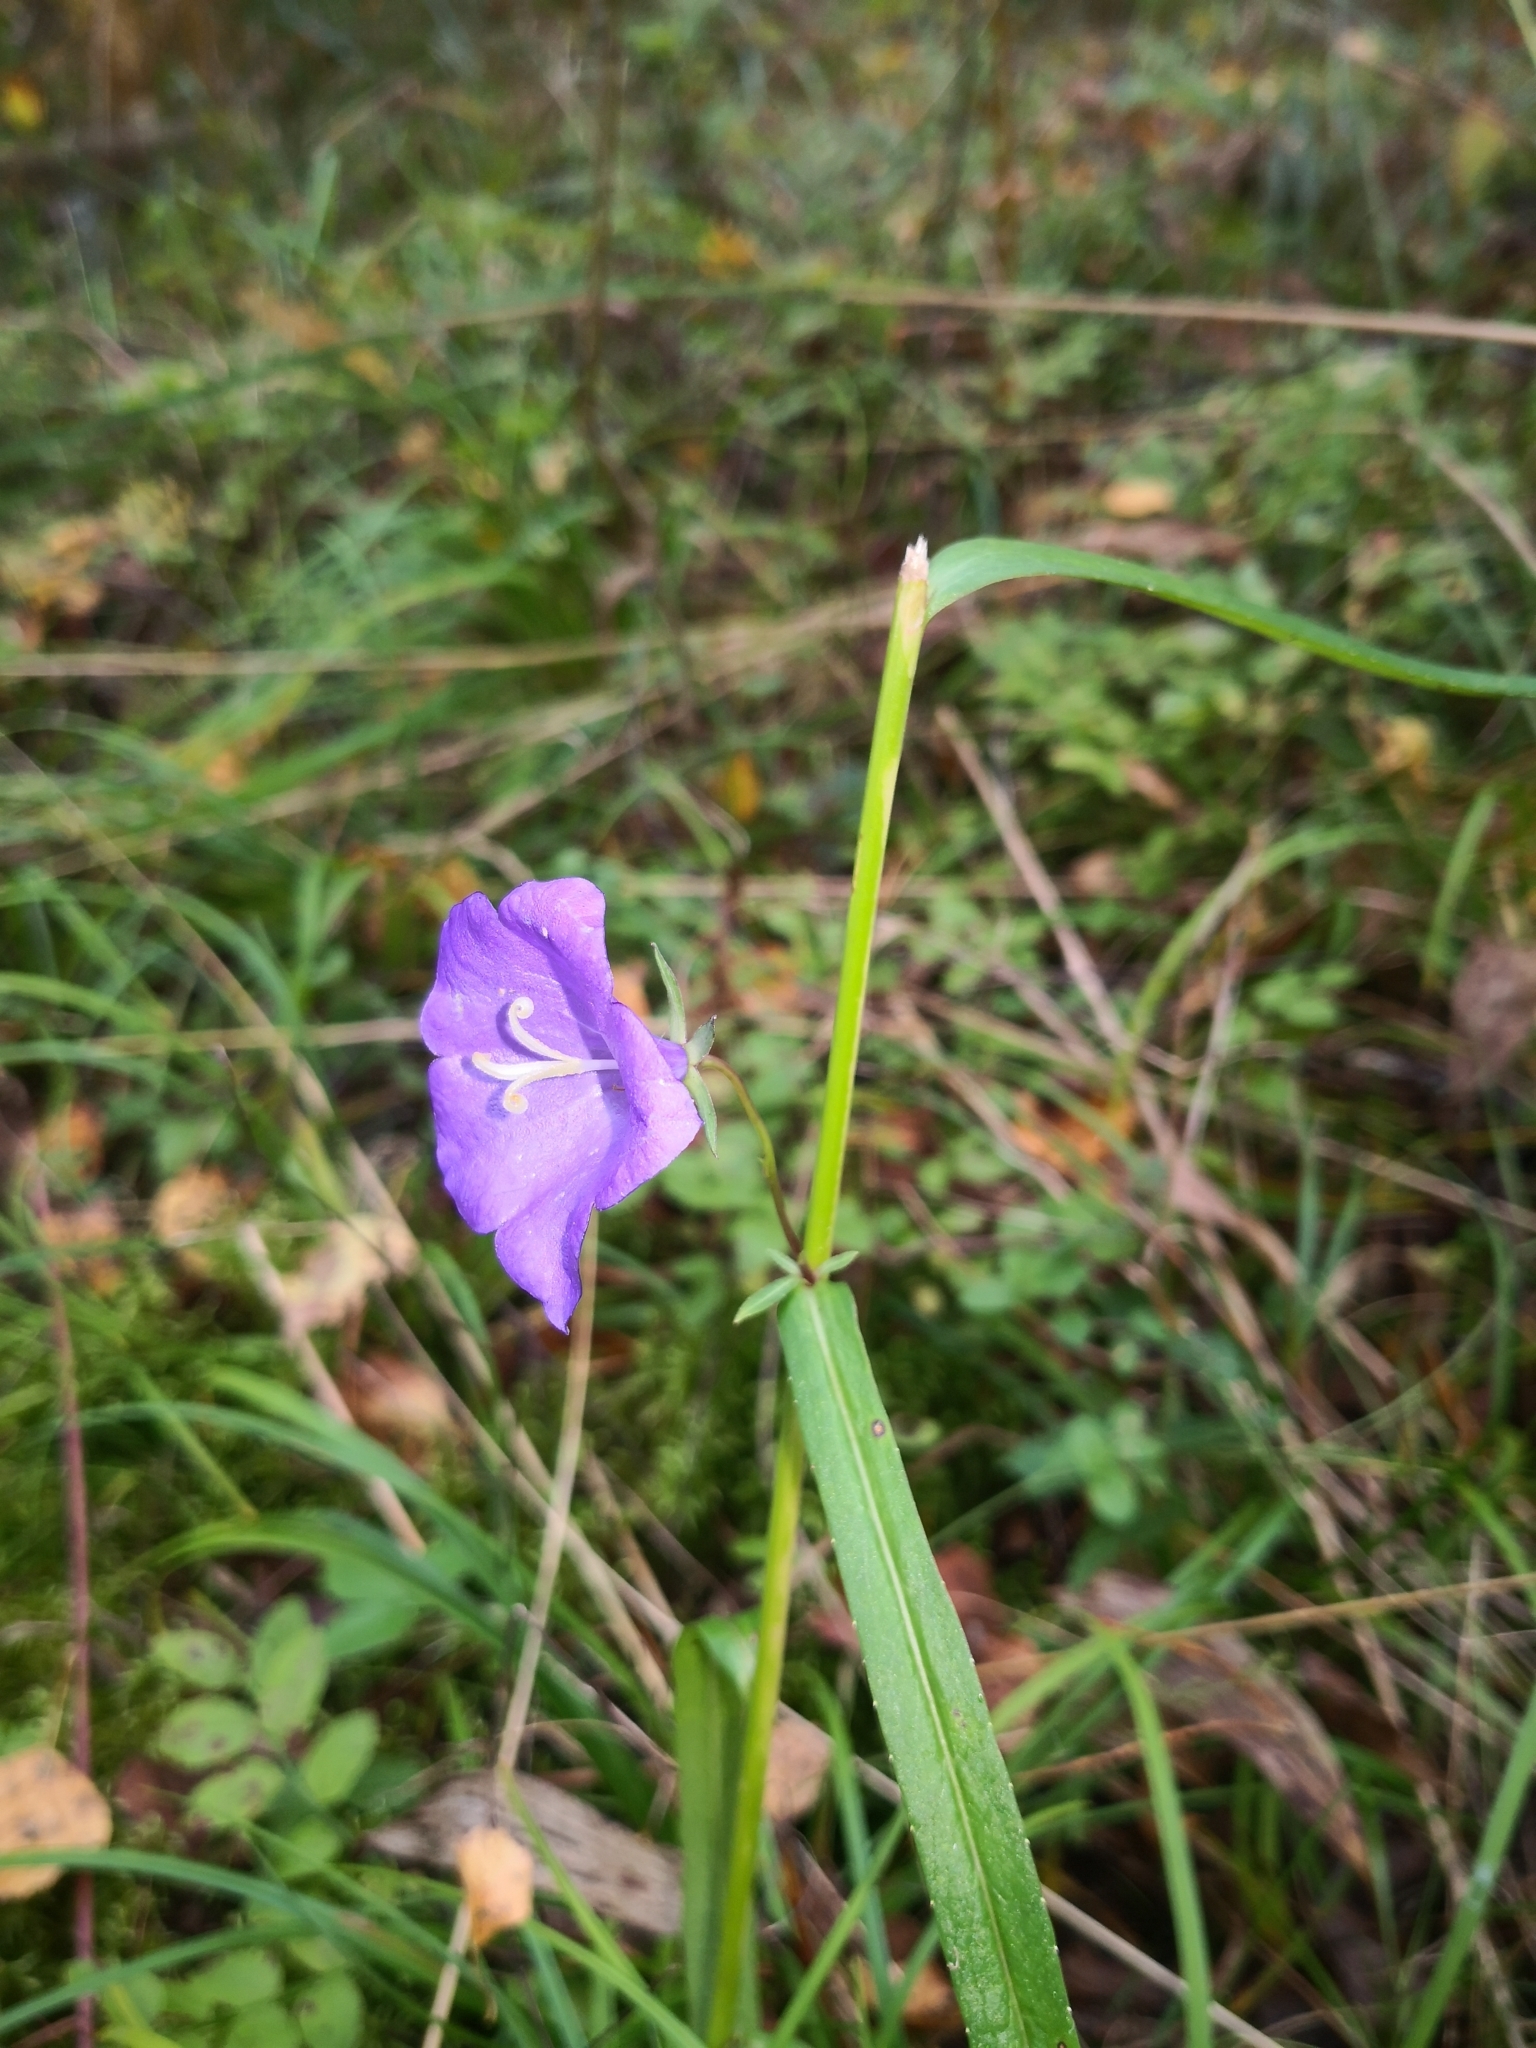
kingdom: Plantae
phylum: Tracheophyta
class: Magnoliopsida
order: Asterales
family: Campanulaceae
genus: Campanula
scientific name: Campanula persicifolia
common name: Peach-leaved bellflower
